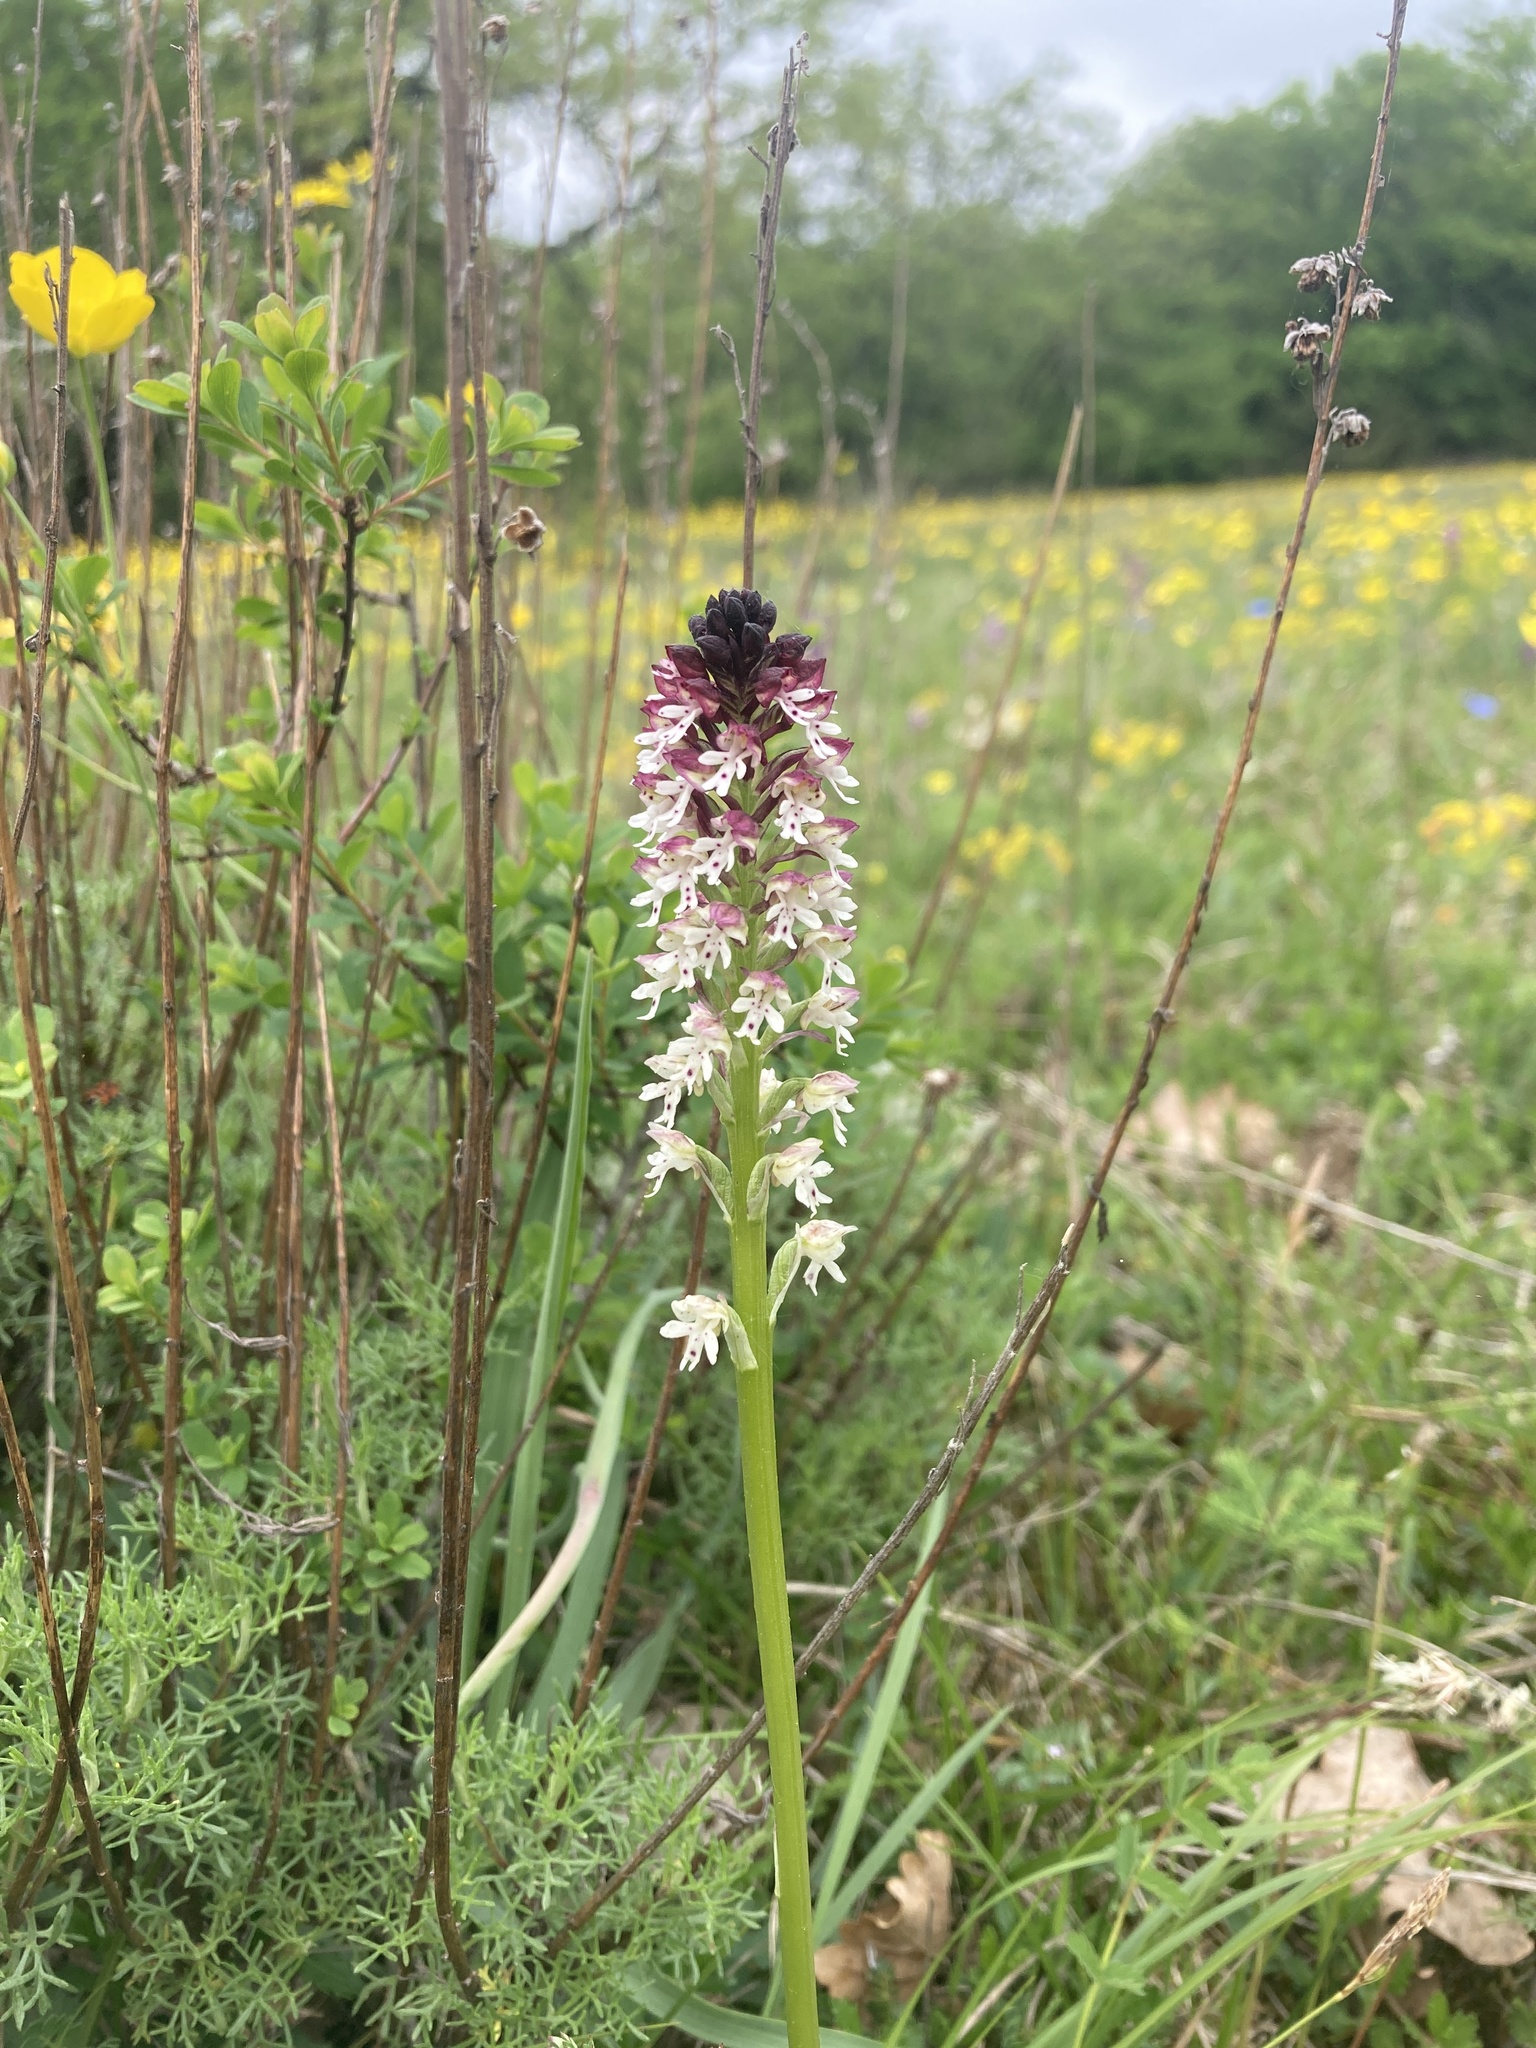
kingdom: Plantae
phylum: Tracheophyta
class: Liliopsida
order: Asparagales
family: Orchidaceae
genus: Neotinea
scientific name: Neotinea ustulata
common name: Burnt orchid
